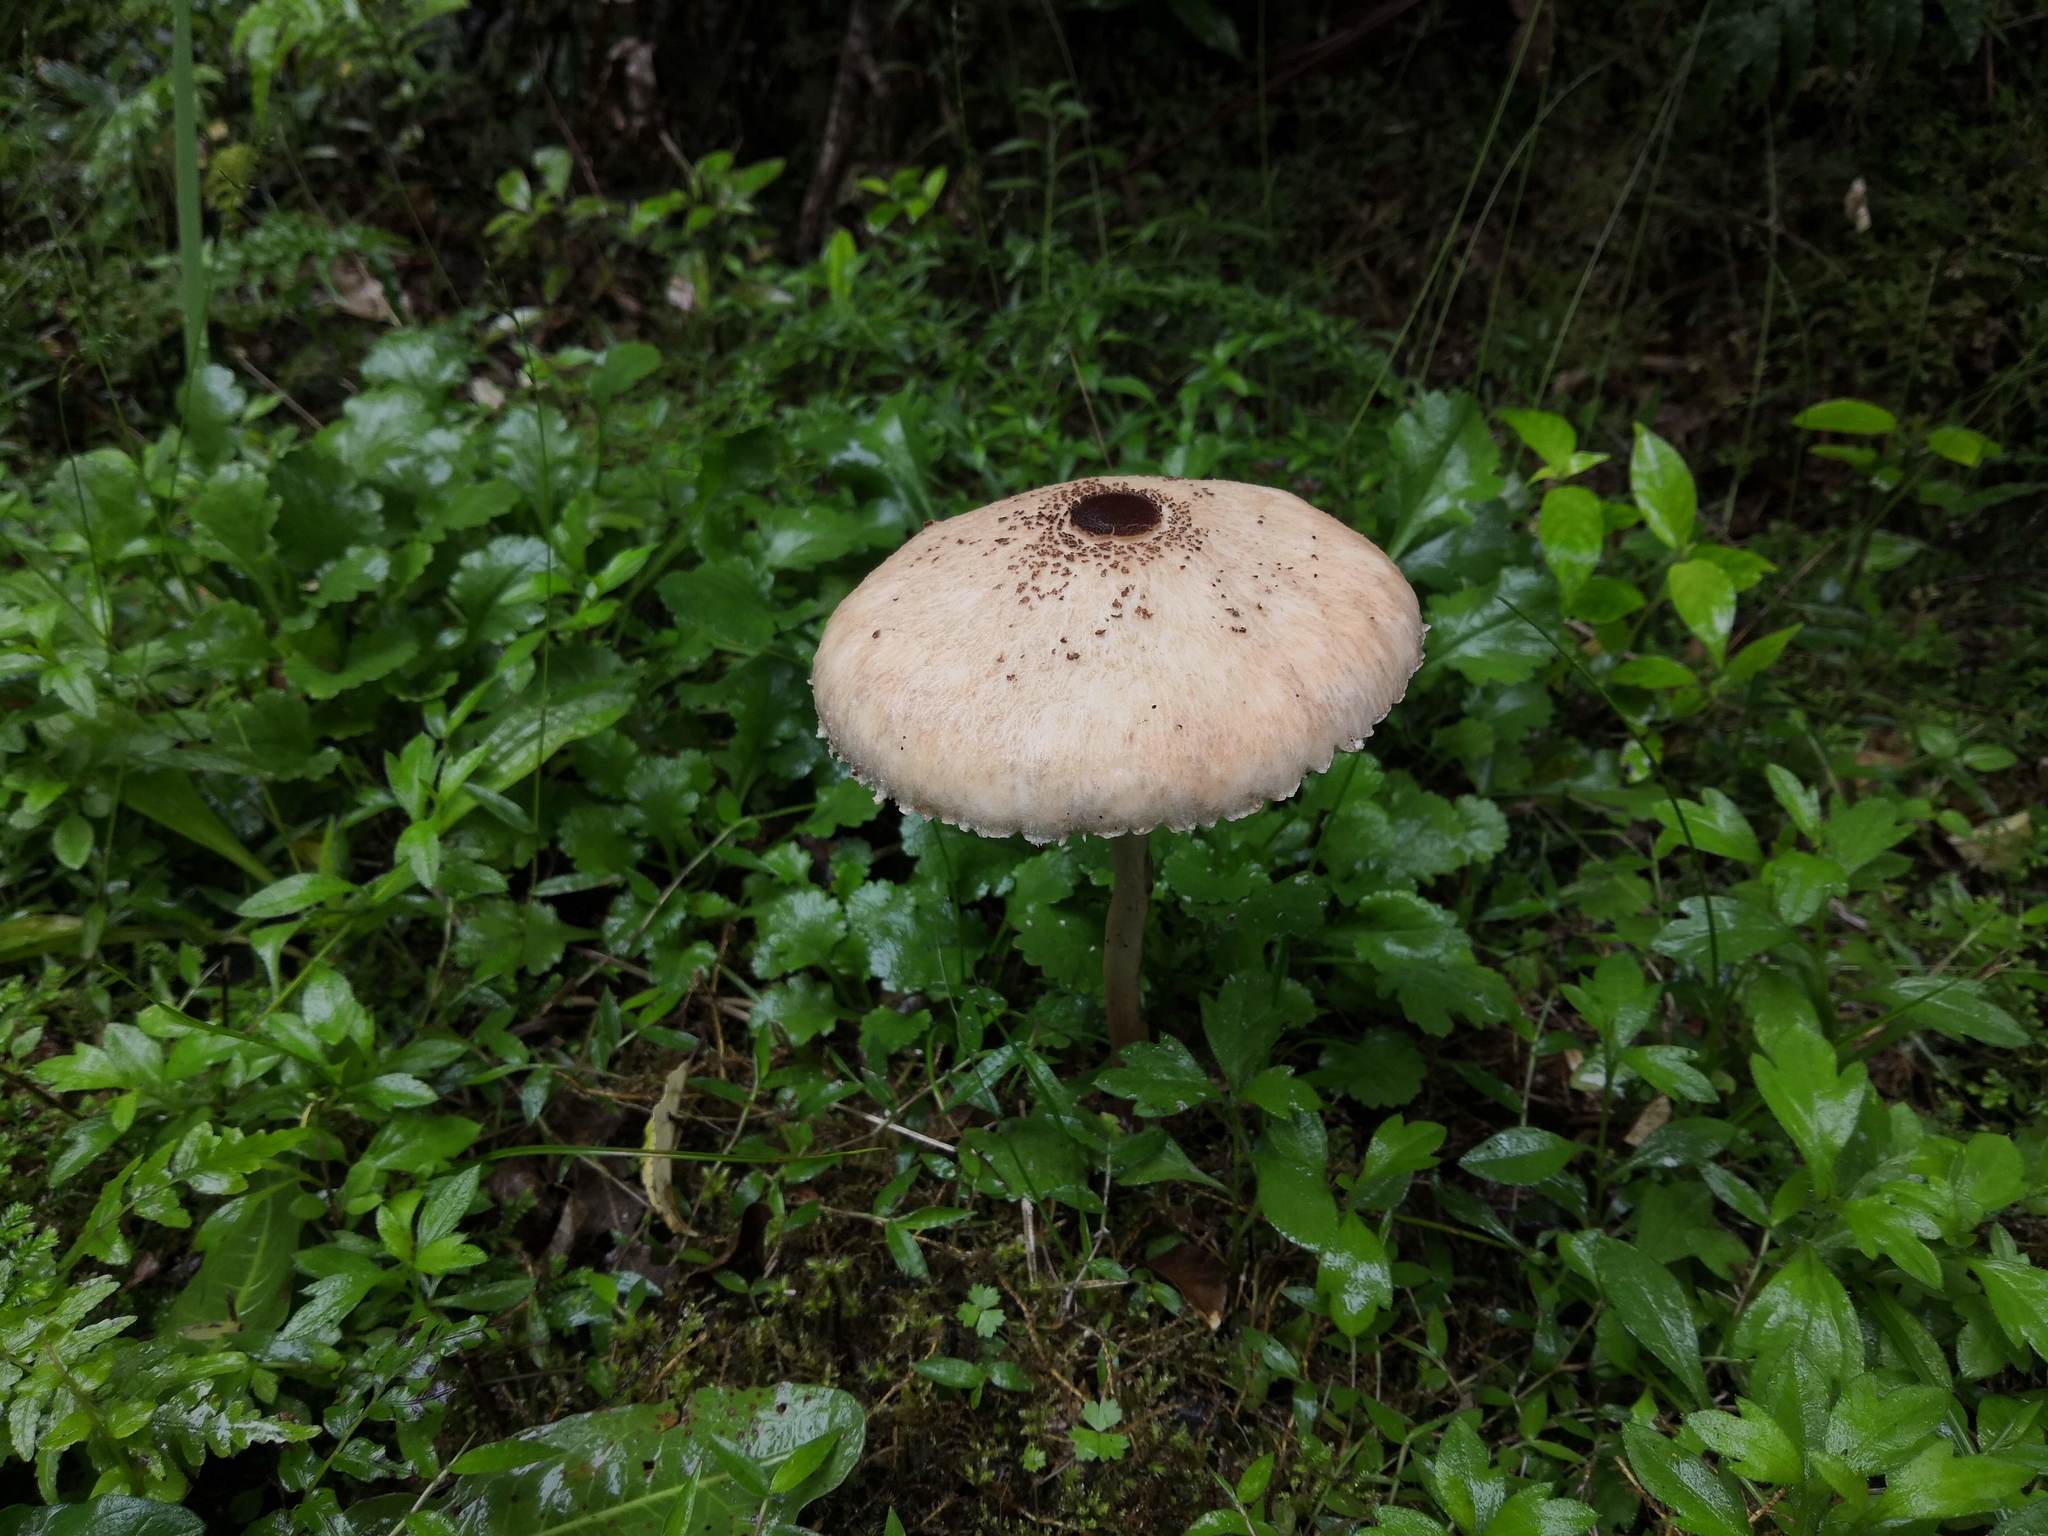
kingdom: Fungi
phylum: Basidiomycota
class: Agaricomycetes
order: Agaricales
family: Agaricaceae
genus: Macrolepiota
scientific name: Macrolepiota clelandii
